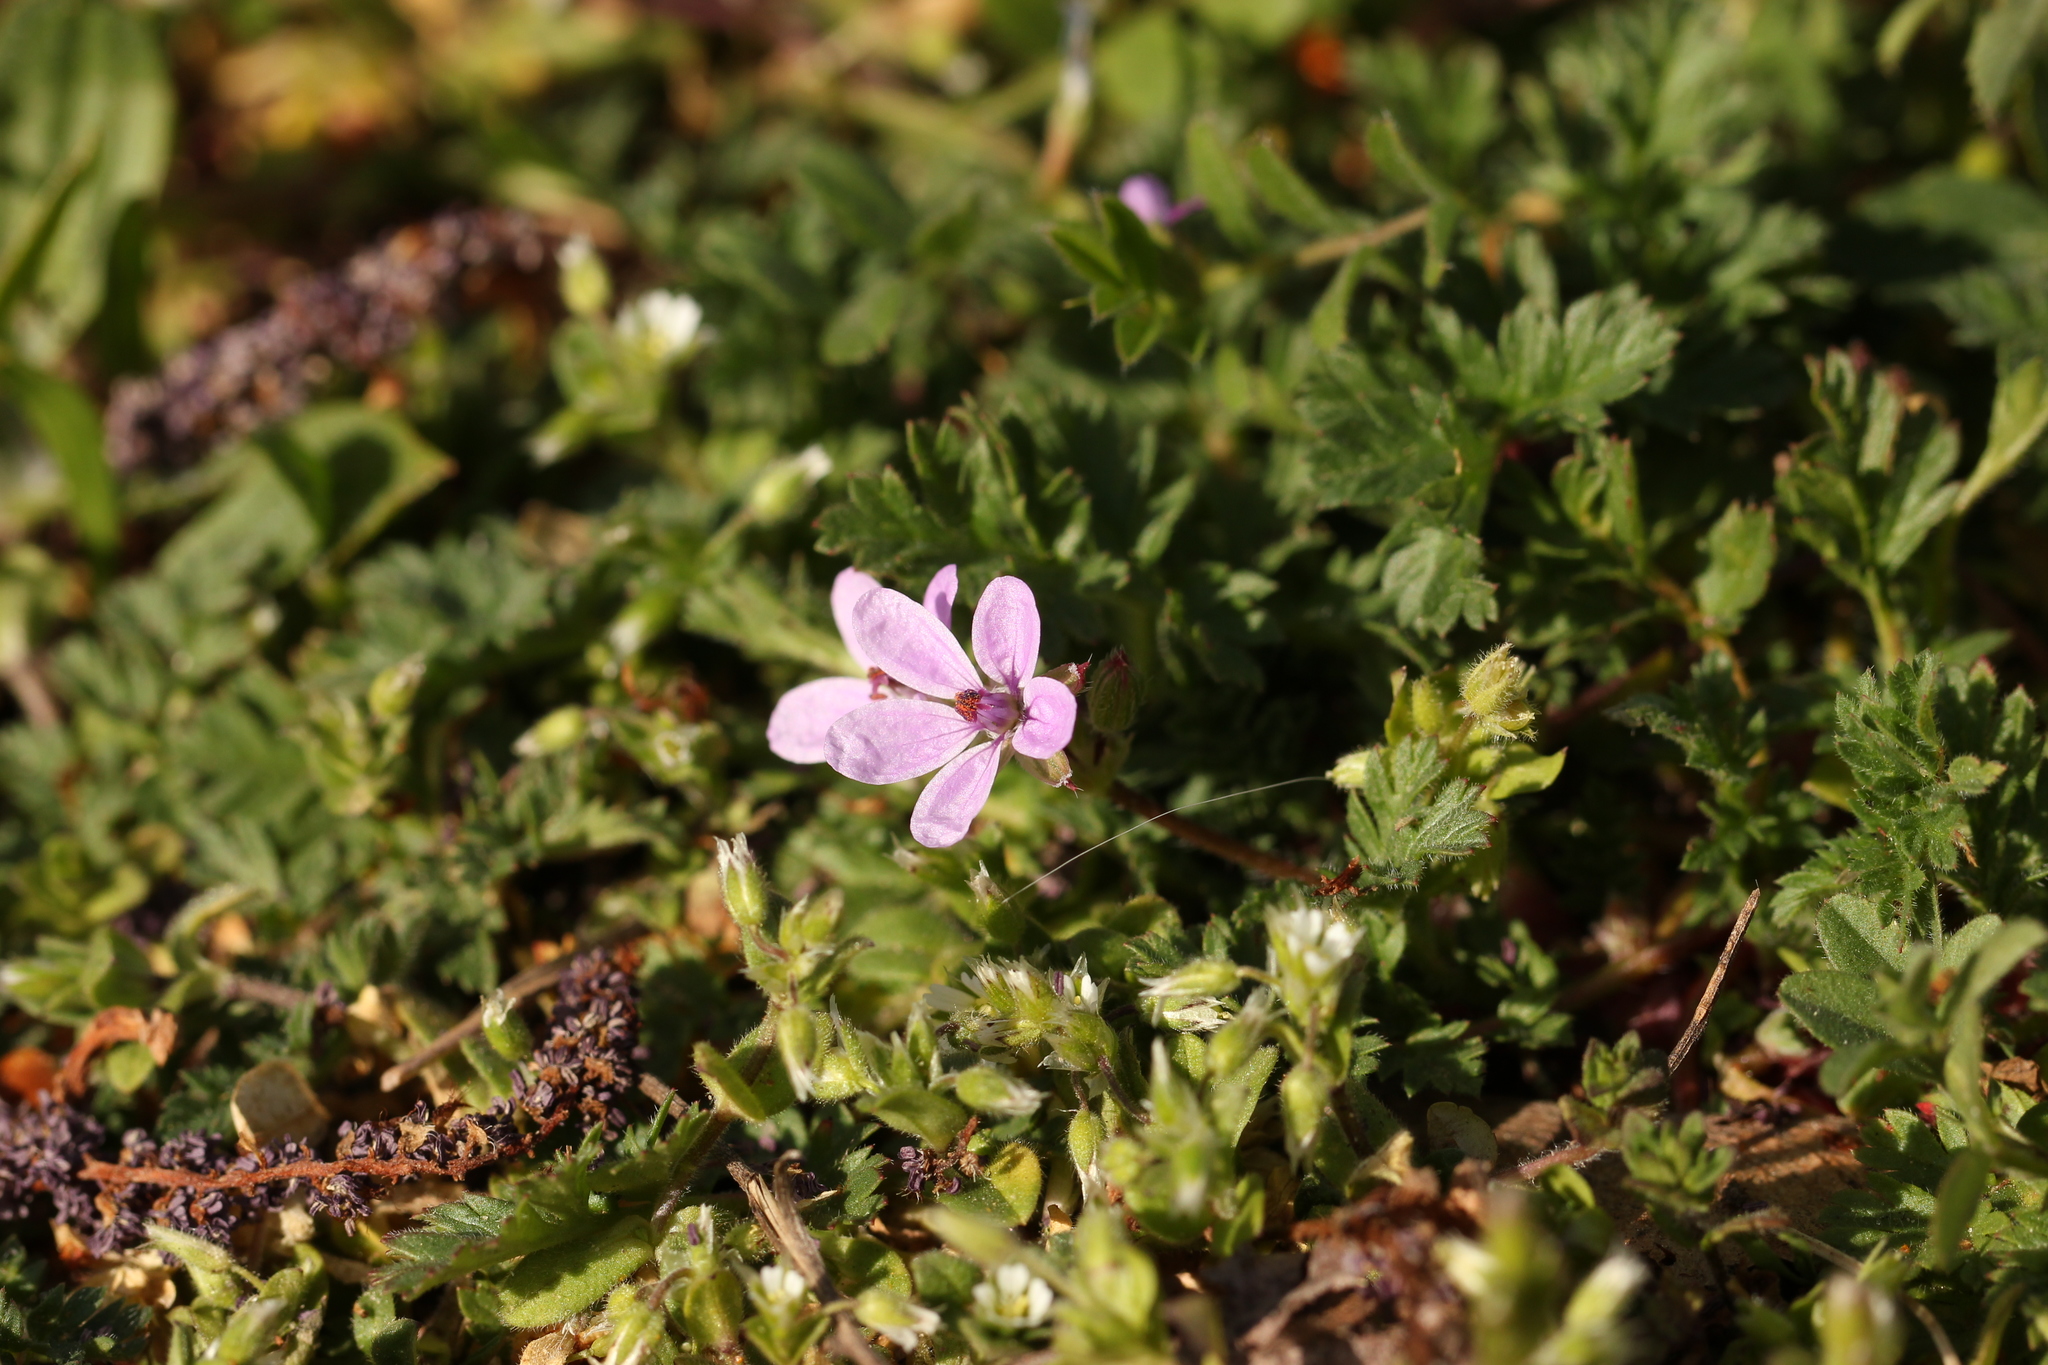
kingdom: Plantae
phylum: Tracheophyta
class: Magnoliopsida
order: Geraniales
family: Geraniaceae
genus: Erodium
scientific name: Erodium cicutarium
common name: Common stork's-bill
